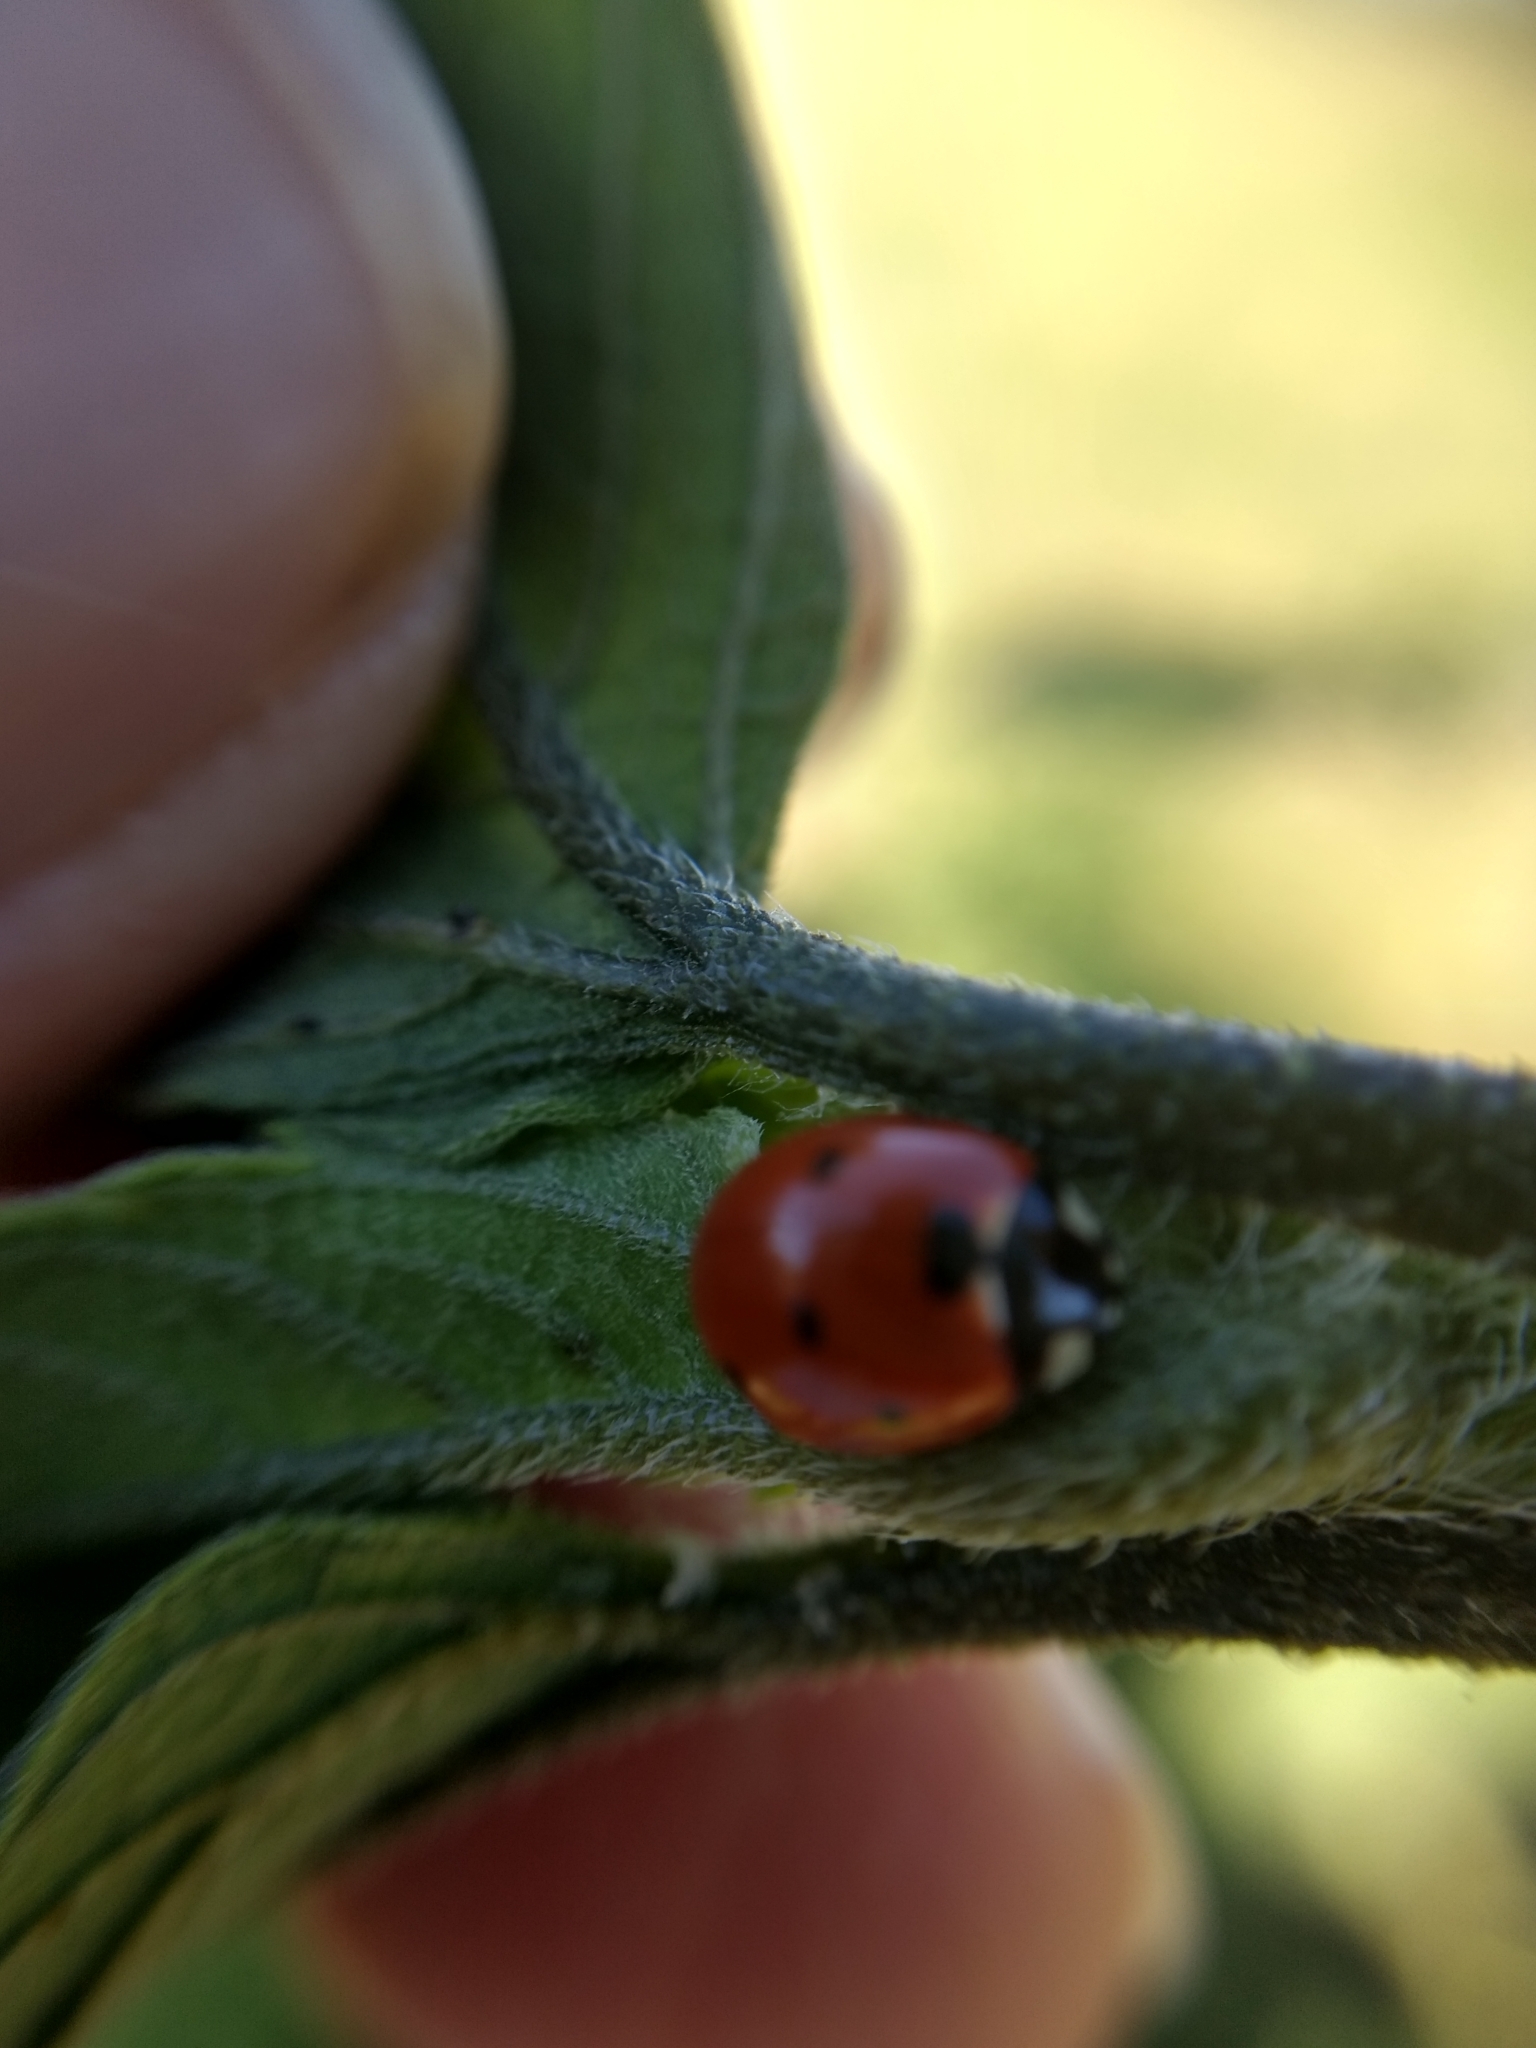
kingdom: Animalia
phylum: Arthropoda
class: Insecta
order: Coleoptera
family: Coccinellidae
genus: Coccinella
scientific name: Coccinella septempunctata
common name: Sevenspotted lady beetle
